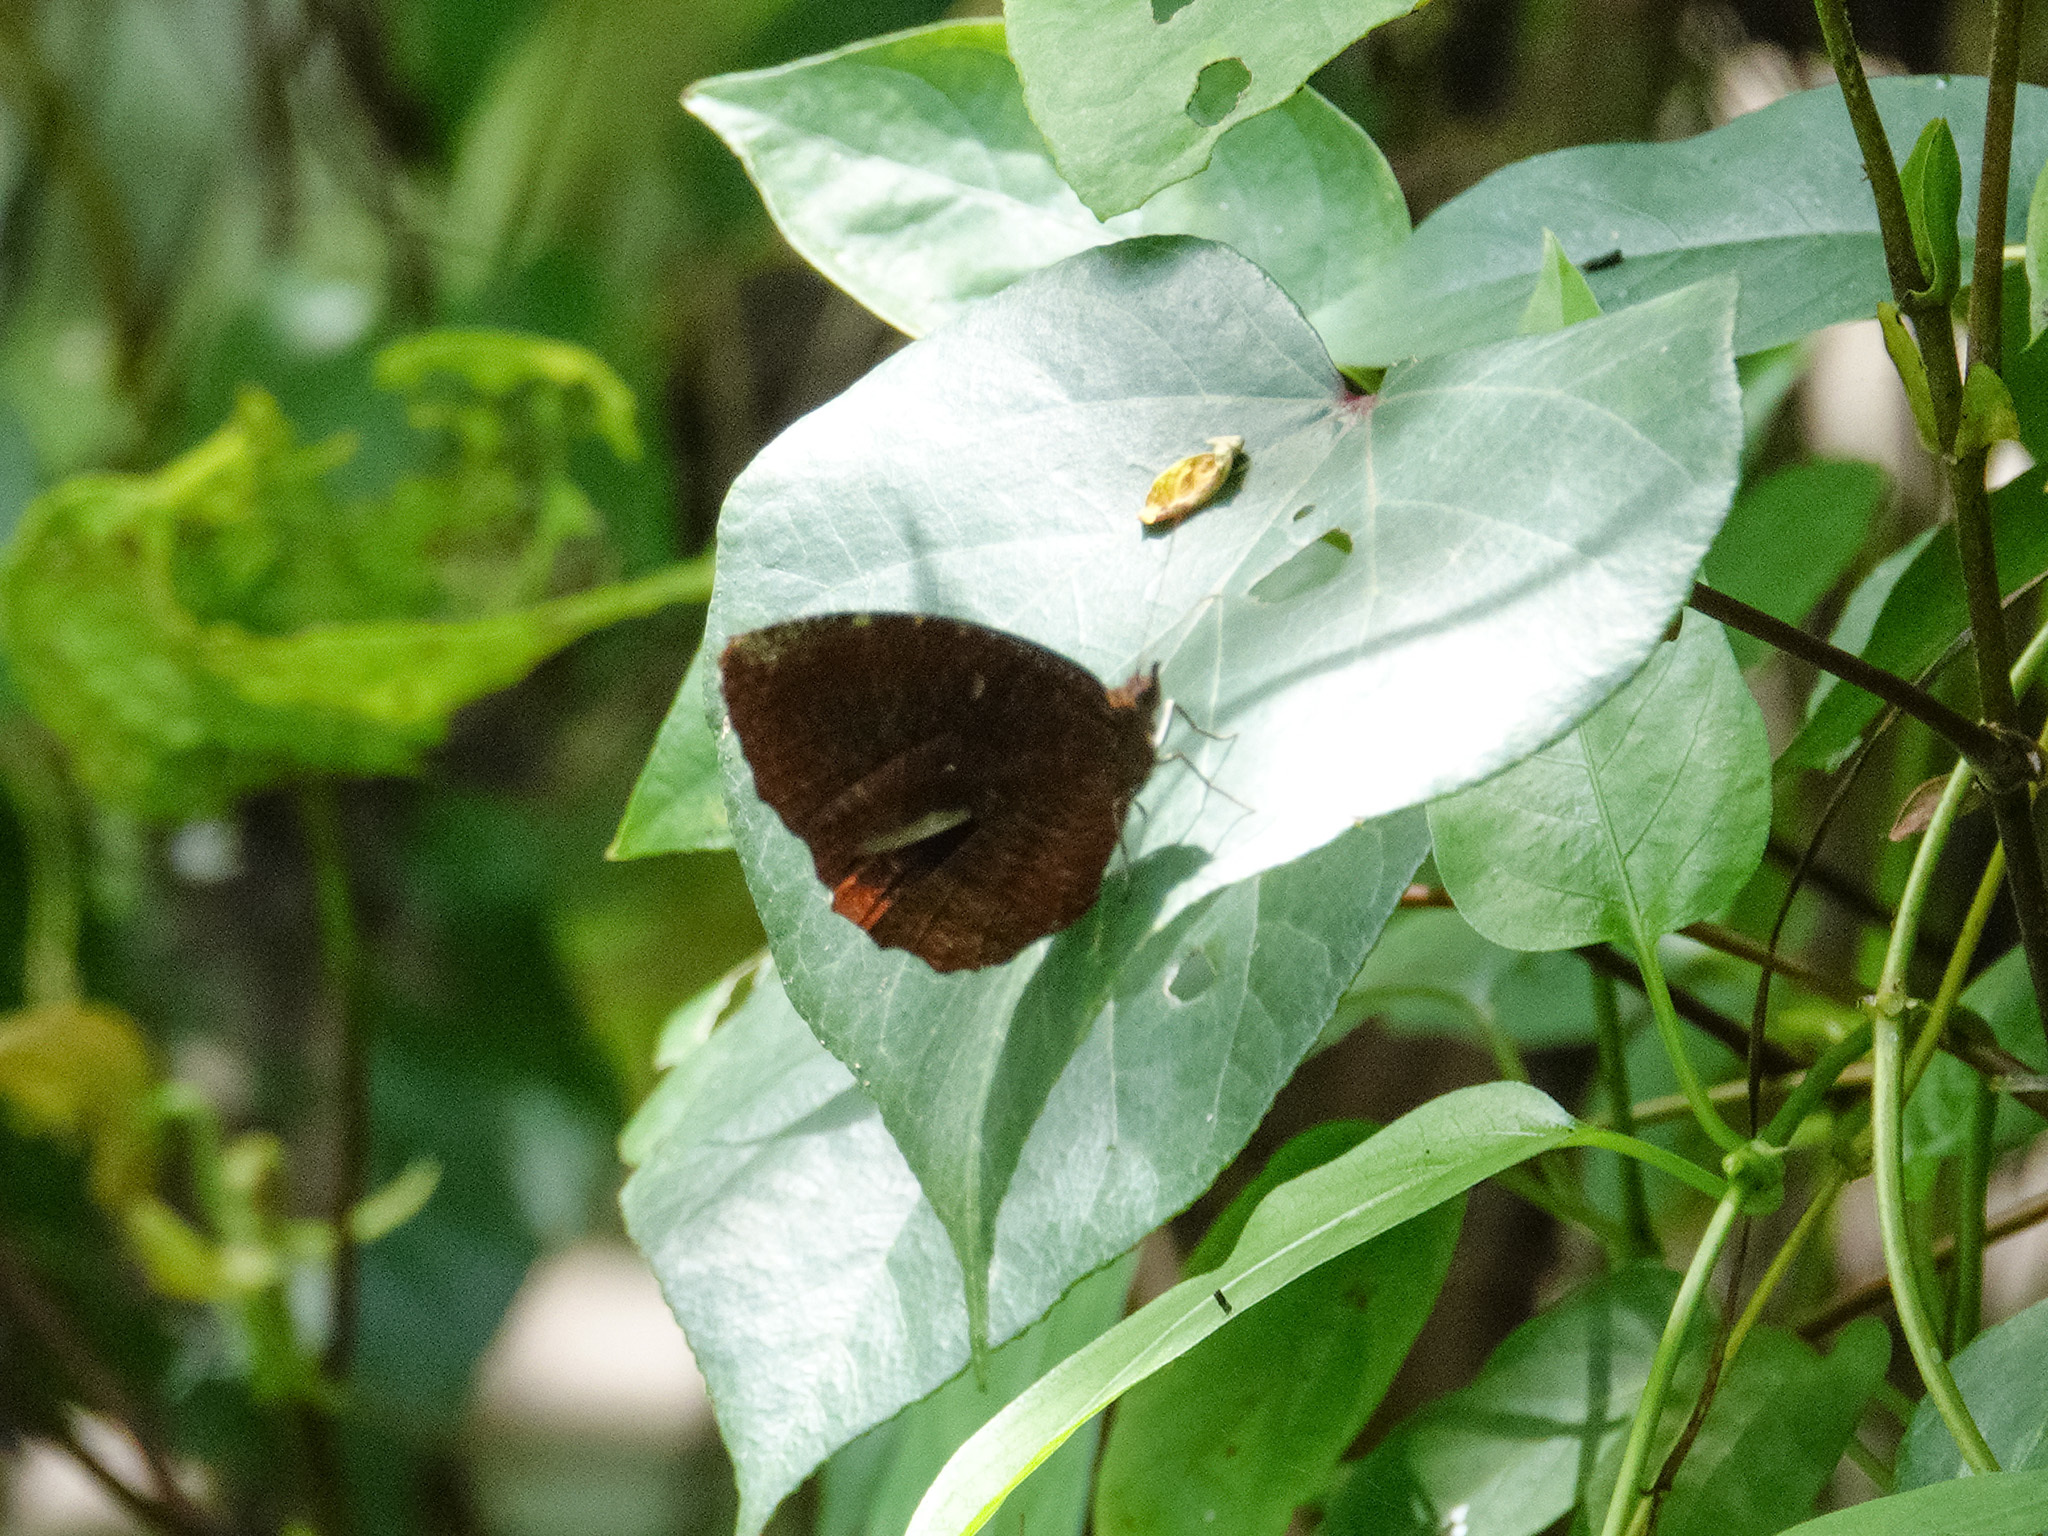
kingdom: Animalia
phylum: Arthropoda
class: Insecta
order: Lepidoptera
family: Nymphalidae
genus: Elymnias
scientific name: Elymnias hypermnestra
